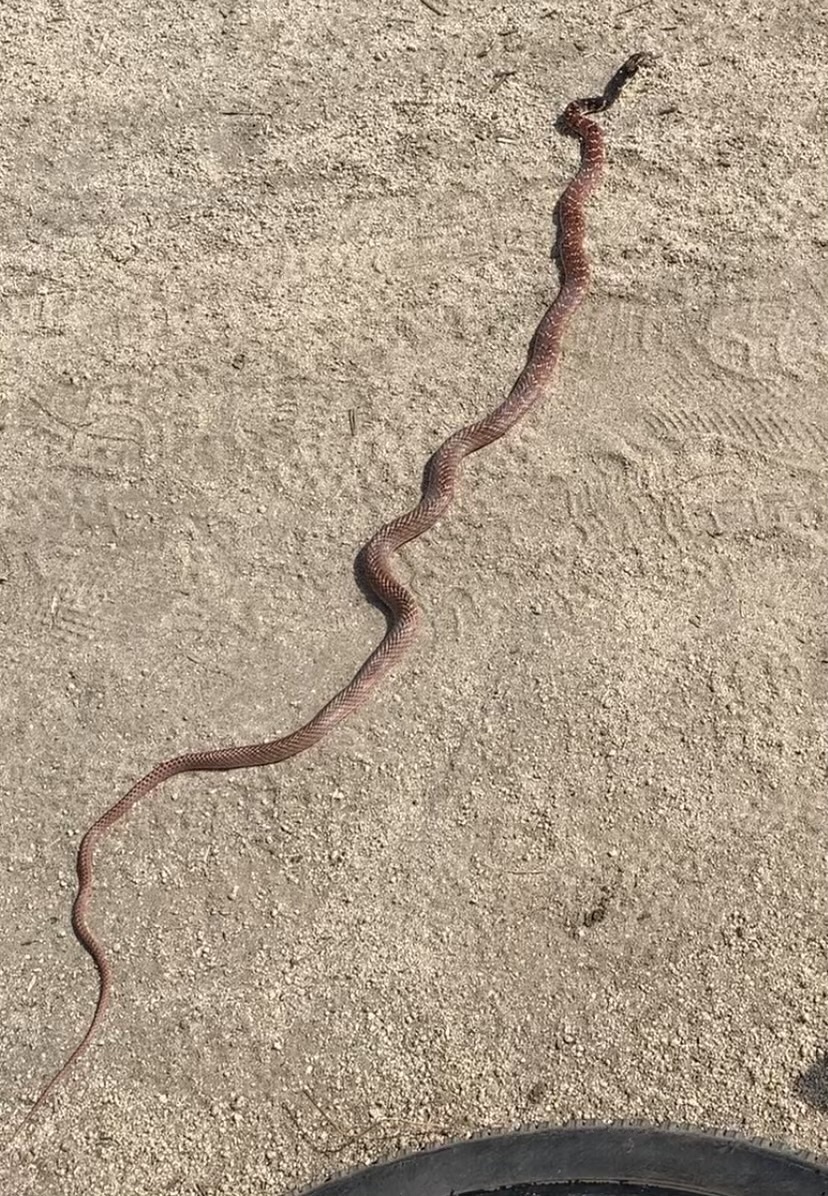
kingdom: Animalia
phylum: Chordata
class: Squamata
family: Colubridae
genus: Masticophis
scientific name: Masticophis flagellum
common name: Coachwhip
